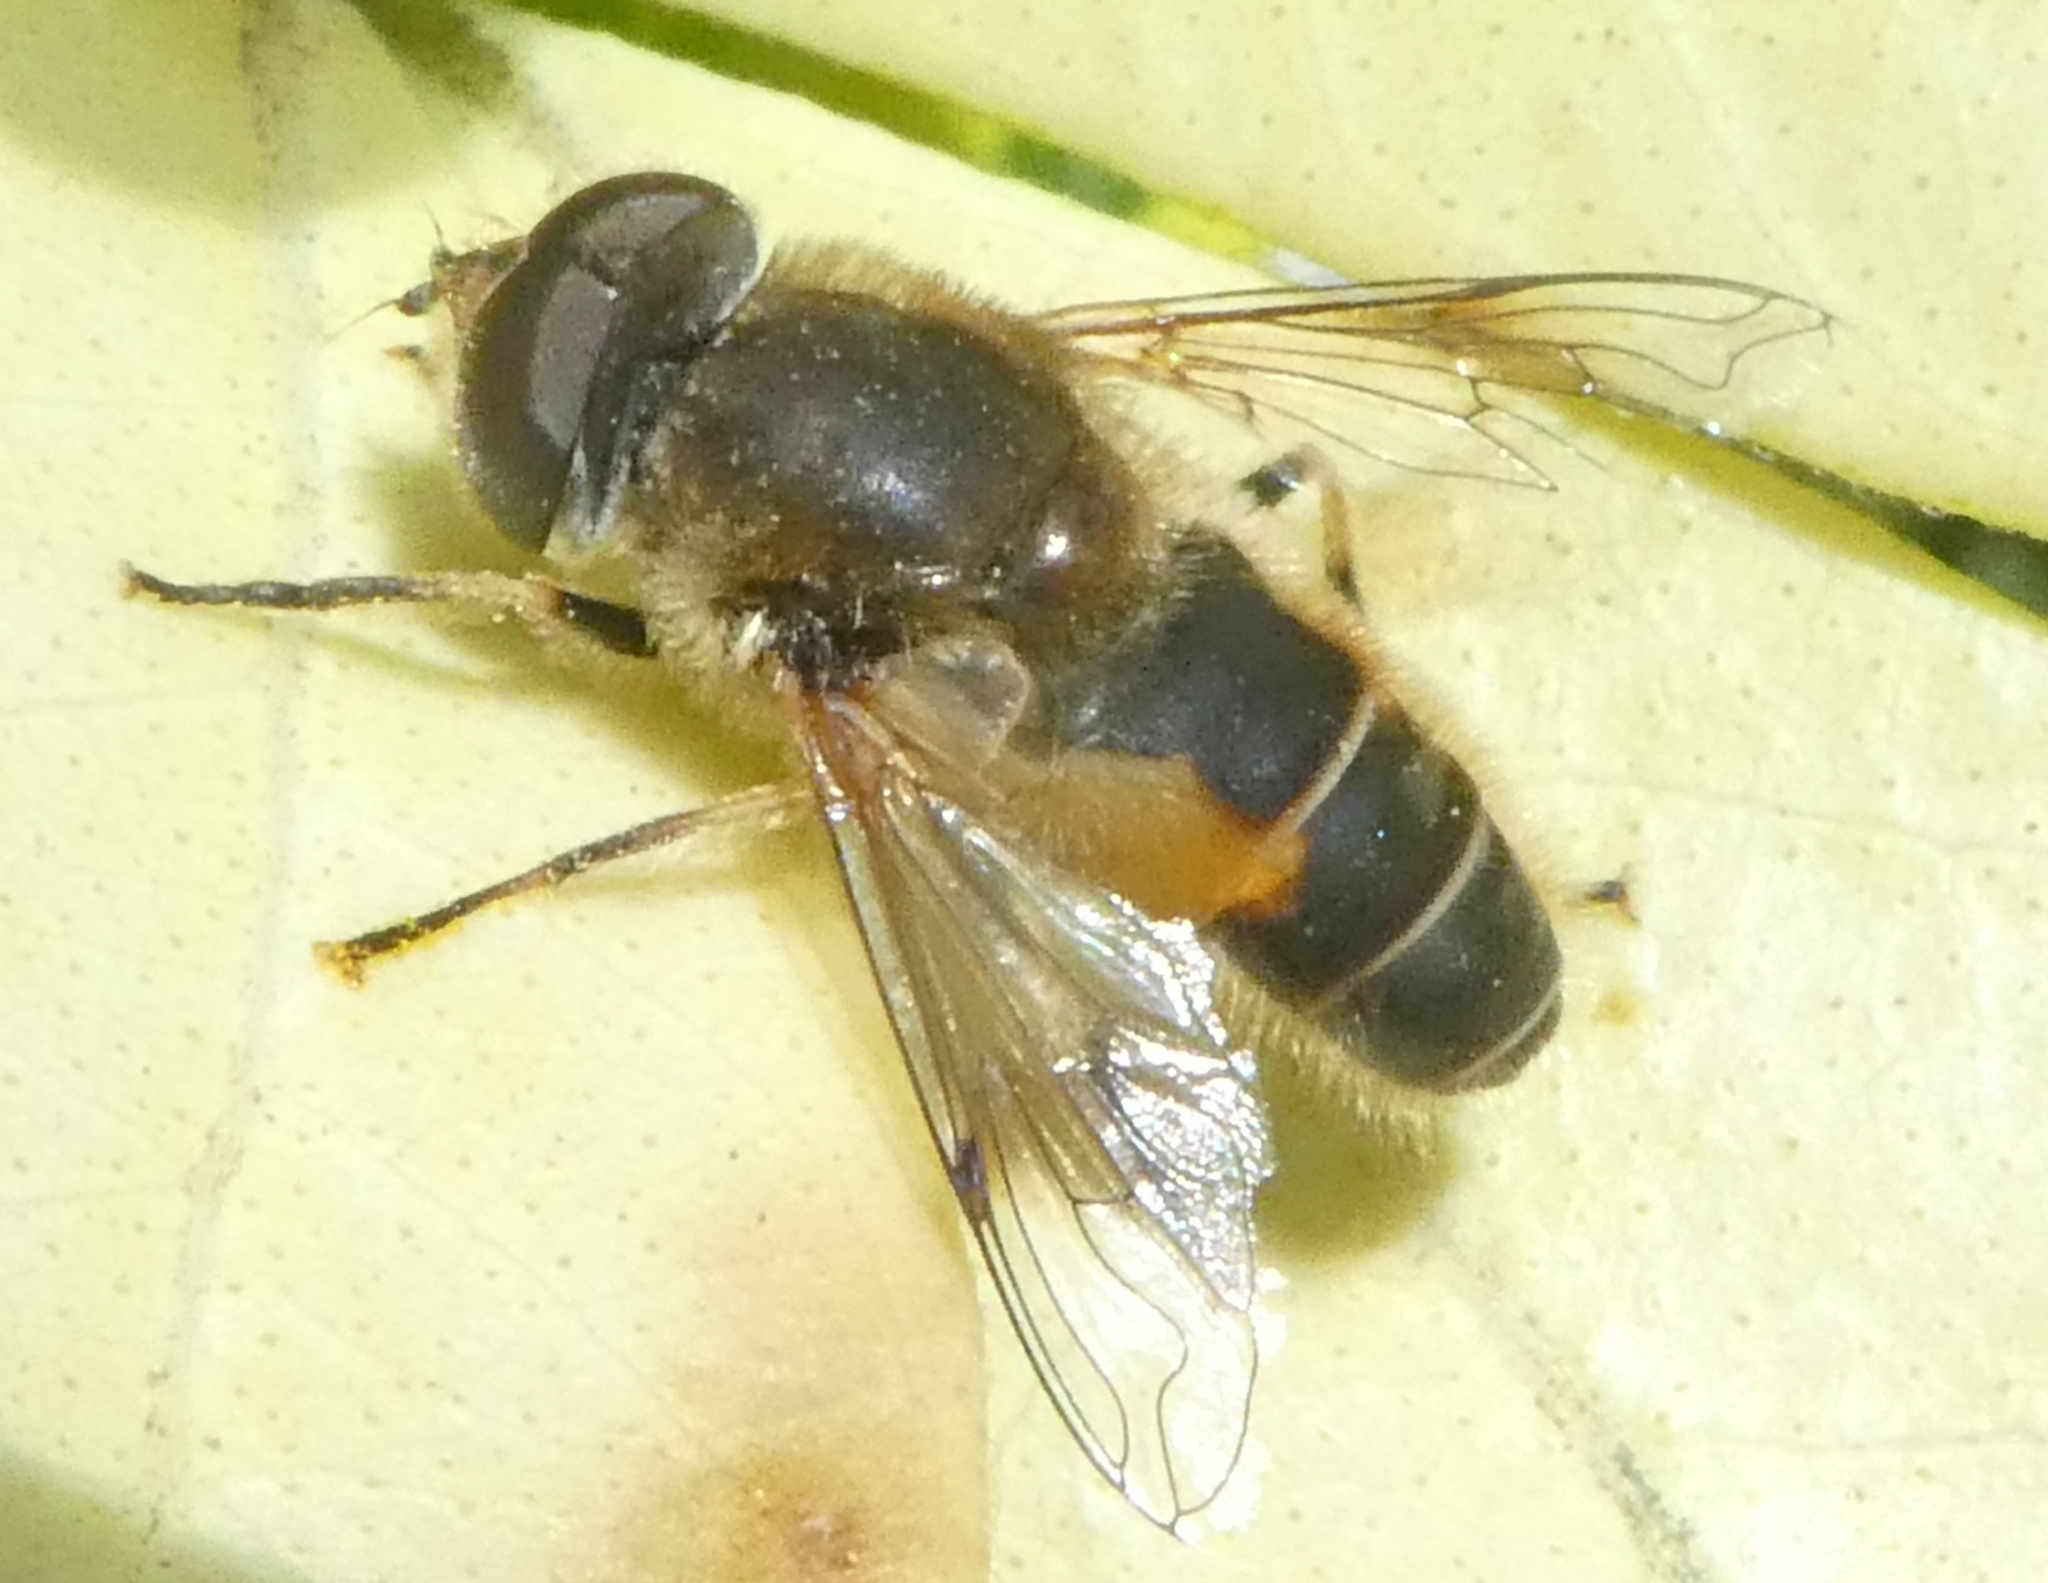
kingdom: Animalia
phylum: Arthropoda
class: Insecta
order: Diptera
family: Syrphidae
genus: Eristalis
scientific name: Eristalis arbustorum
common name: Hover fly
